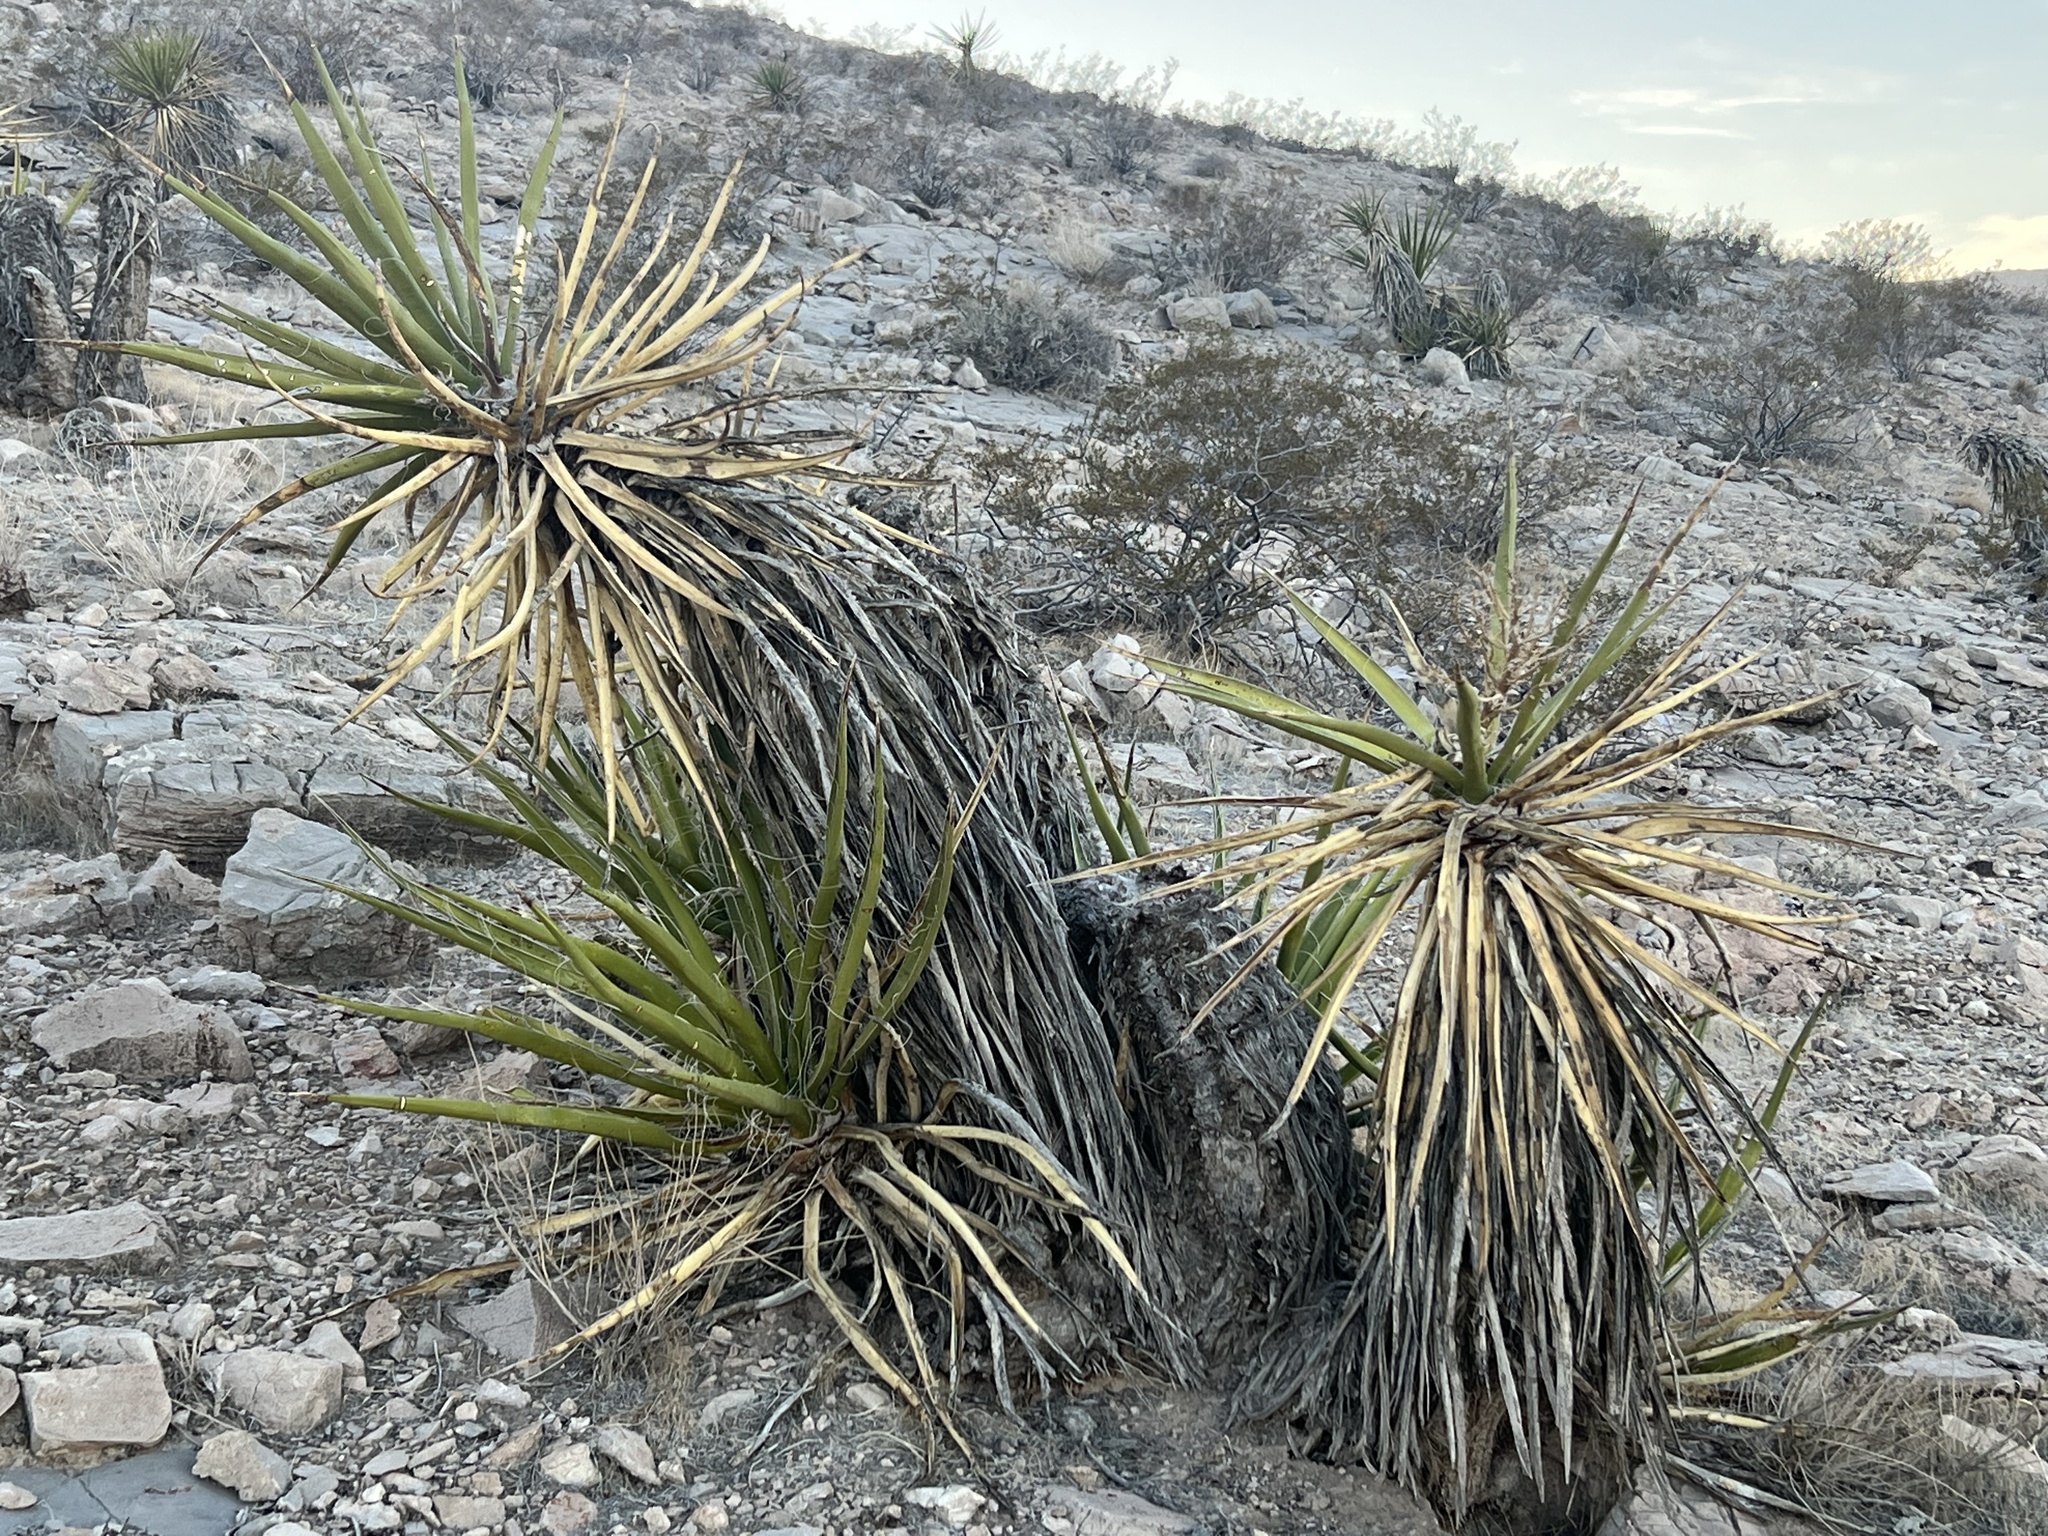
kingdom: Plantae
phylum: Tracheophyta
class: Liliopsida
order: Asparagales
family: Asparagaceae
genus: Yucca
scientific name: Yucca schidigera
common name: Mojave yucca
